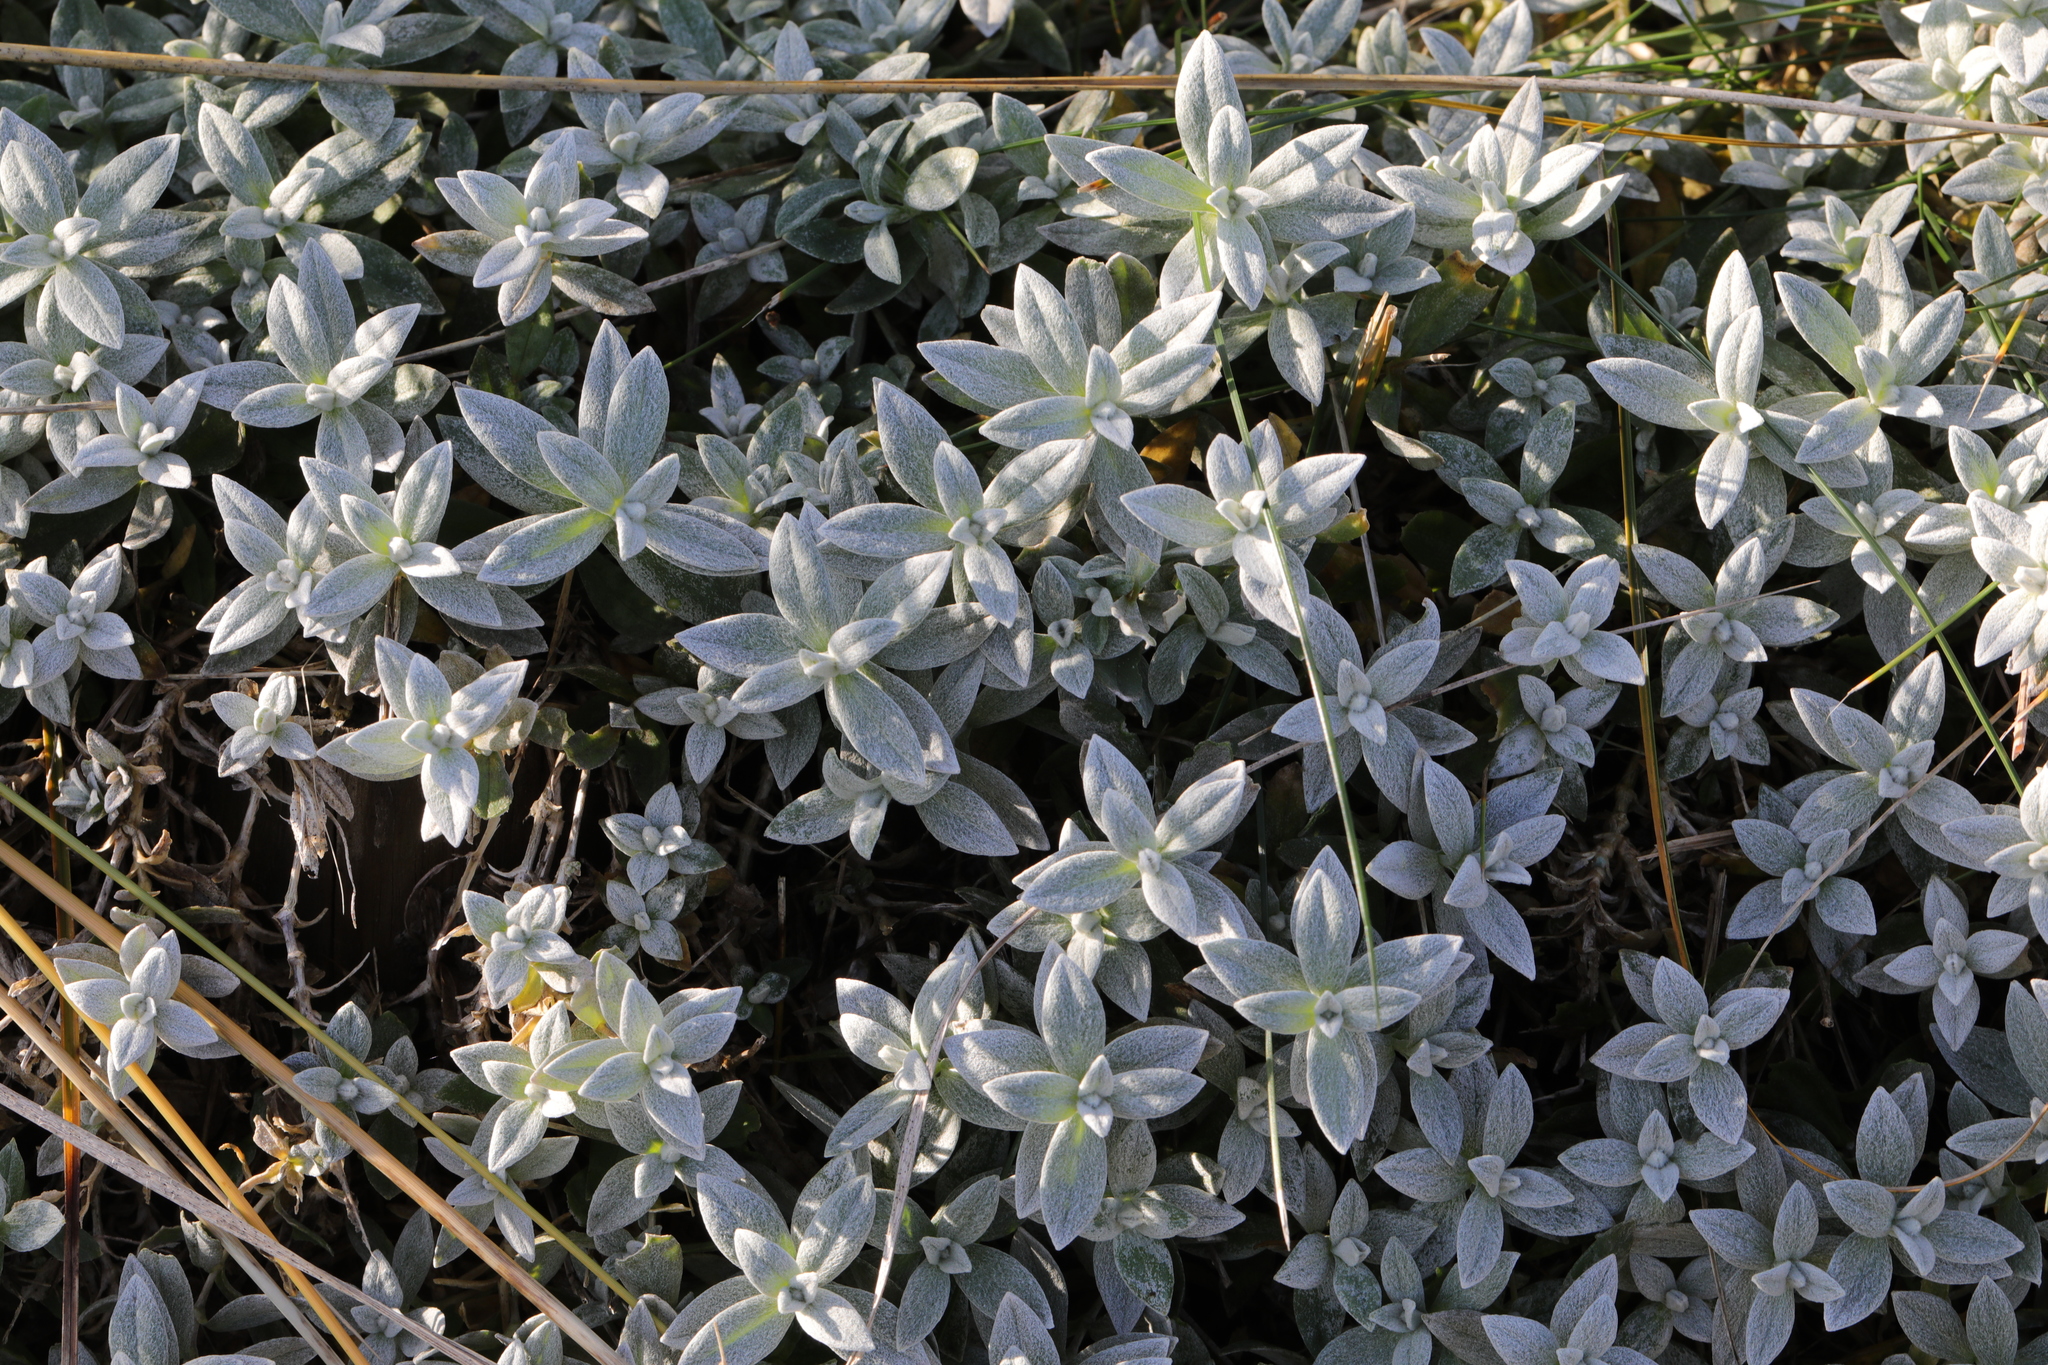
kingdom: Plantae
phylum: Tracheophyta
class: Magnoliopsida
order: Caryophyllales
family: Caryophyllaceae
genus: Cerastium
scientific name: Cerastium tomentosum
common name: Snow-in-summer
